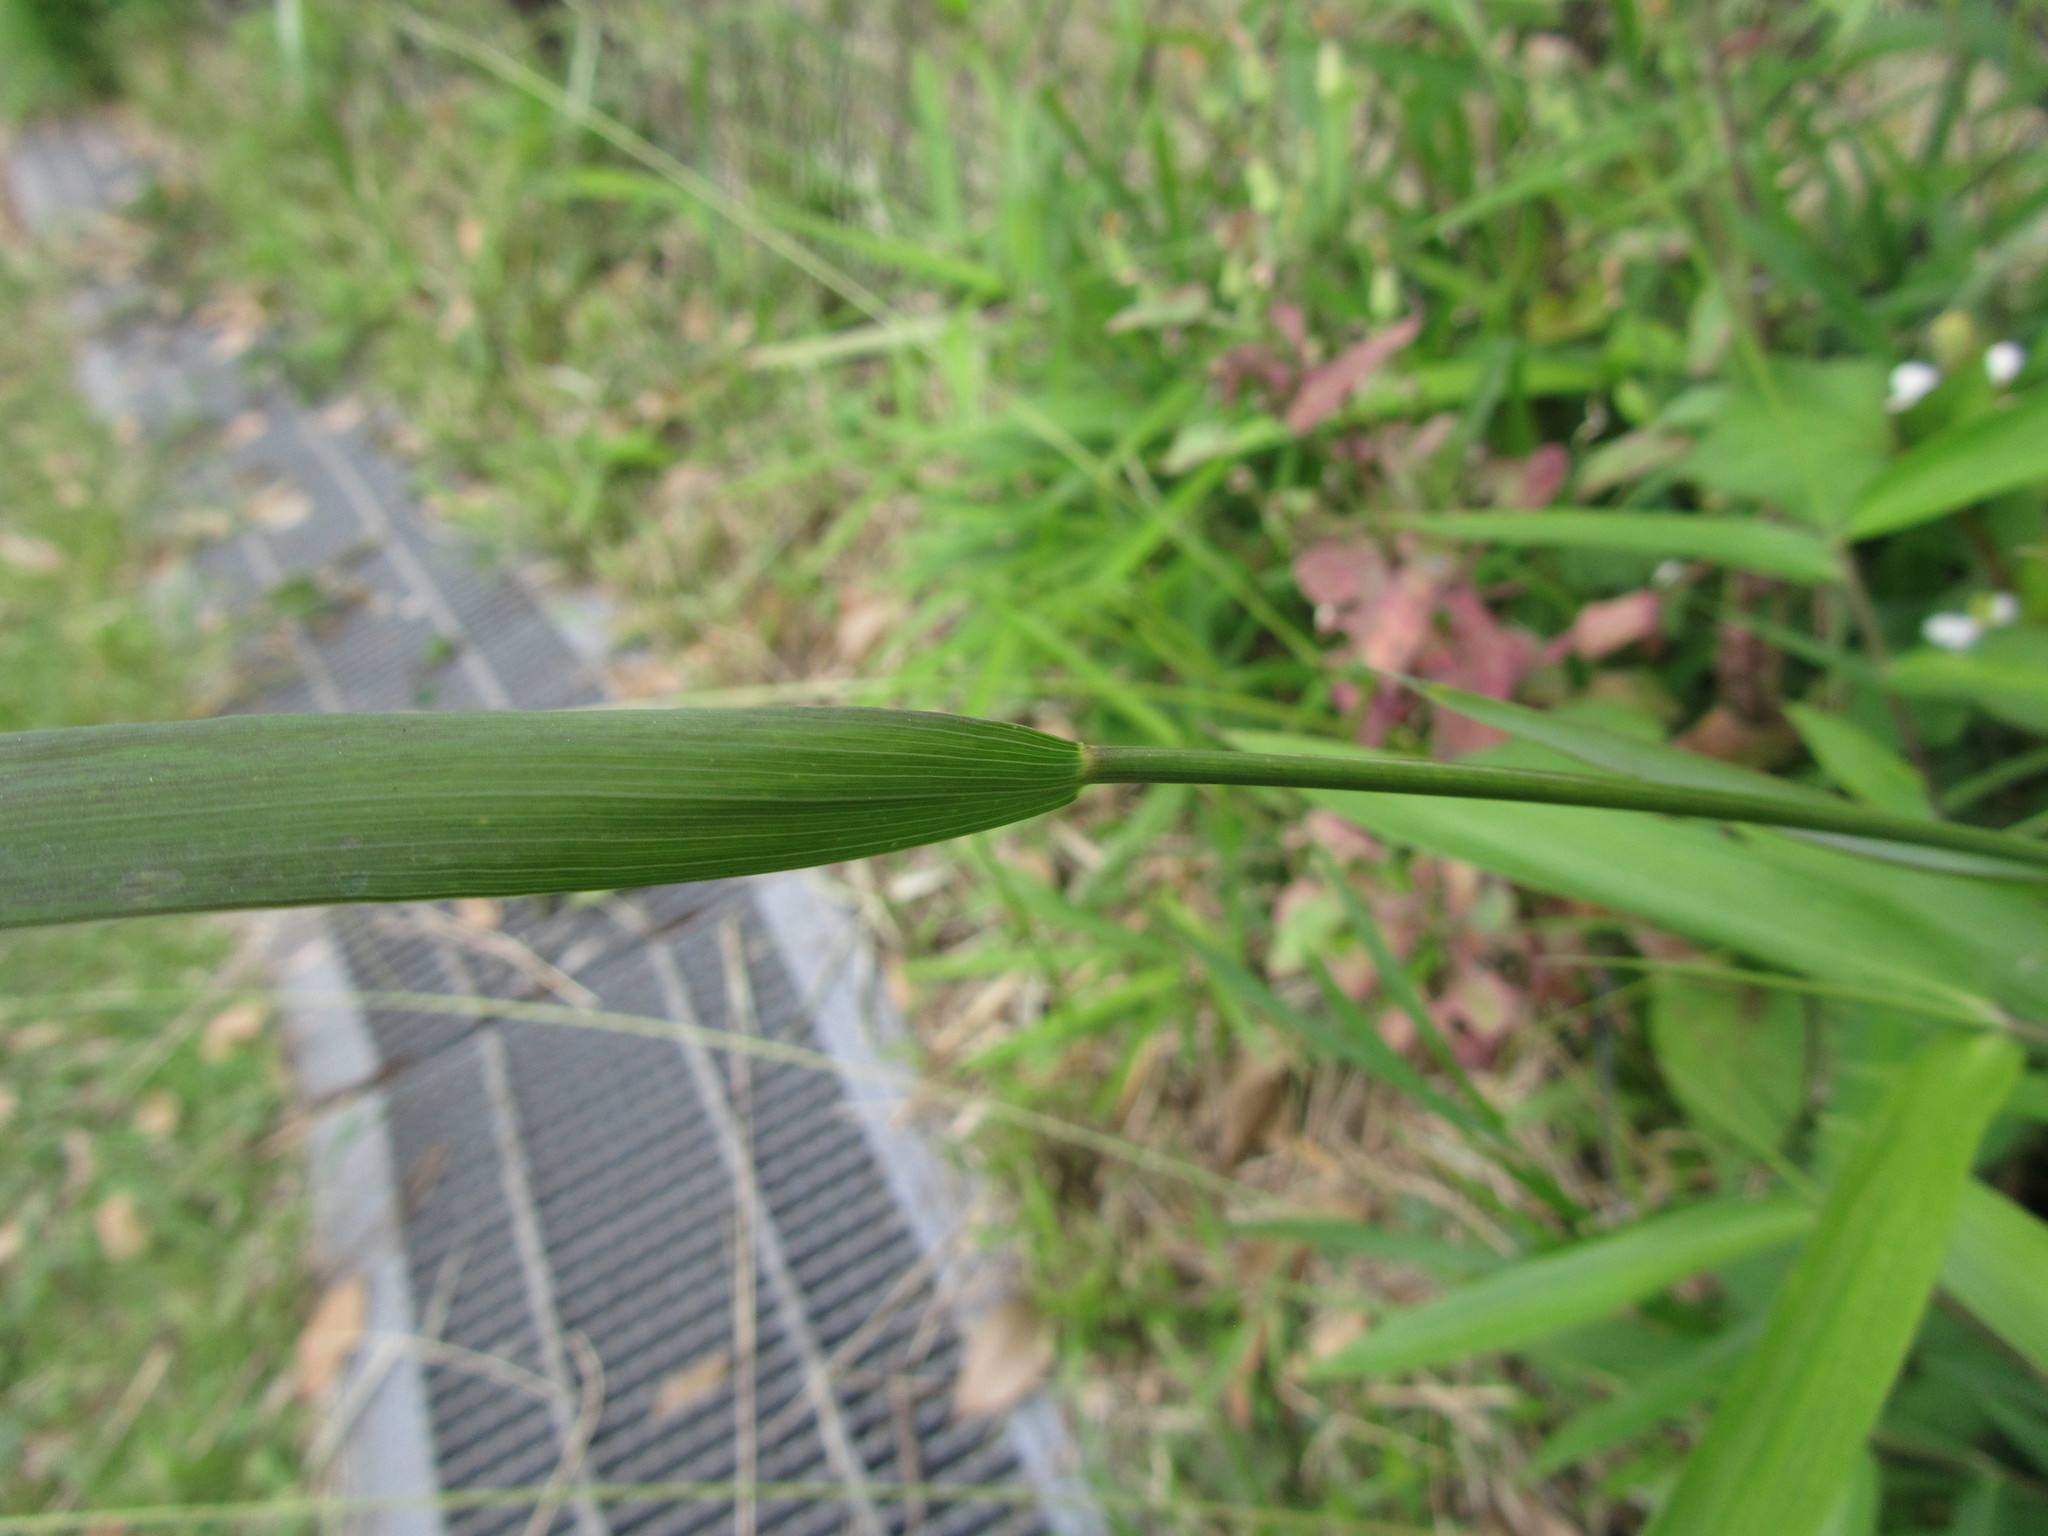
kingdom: Plantae
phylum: Tracheophyta
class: Liliopsida
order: Poales
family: Poaceae
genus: Elymus
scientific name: Elymus tsukushiensis
